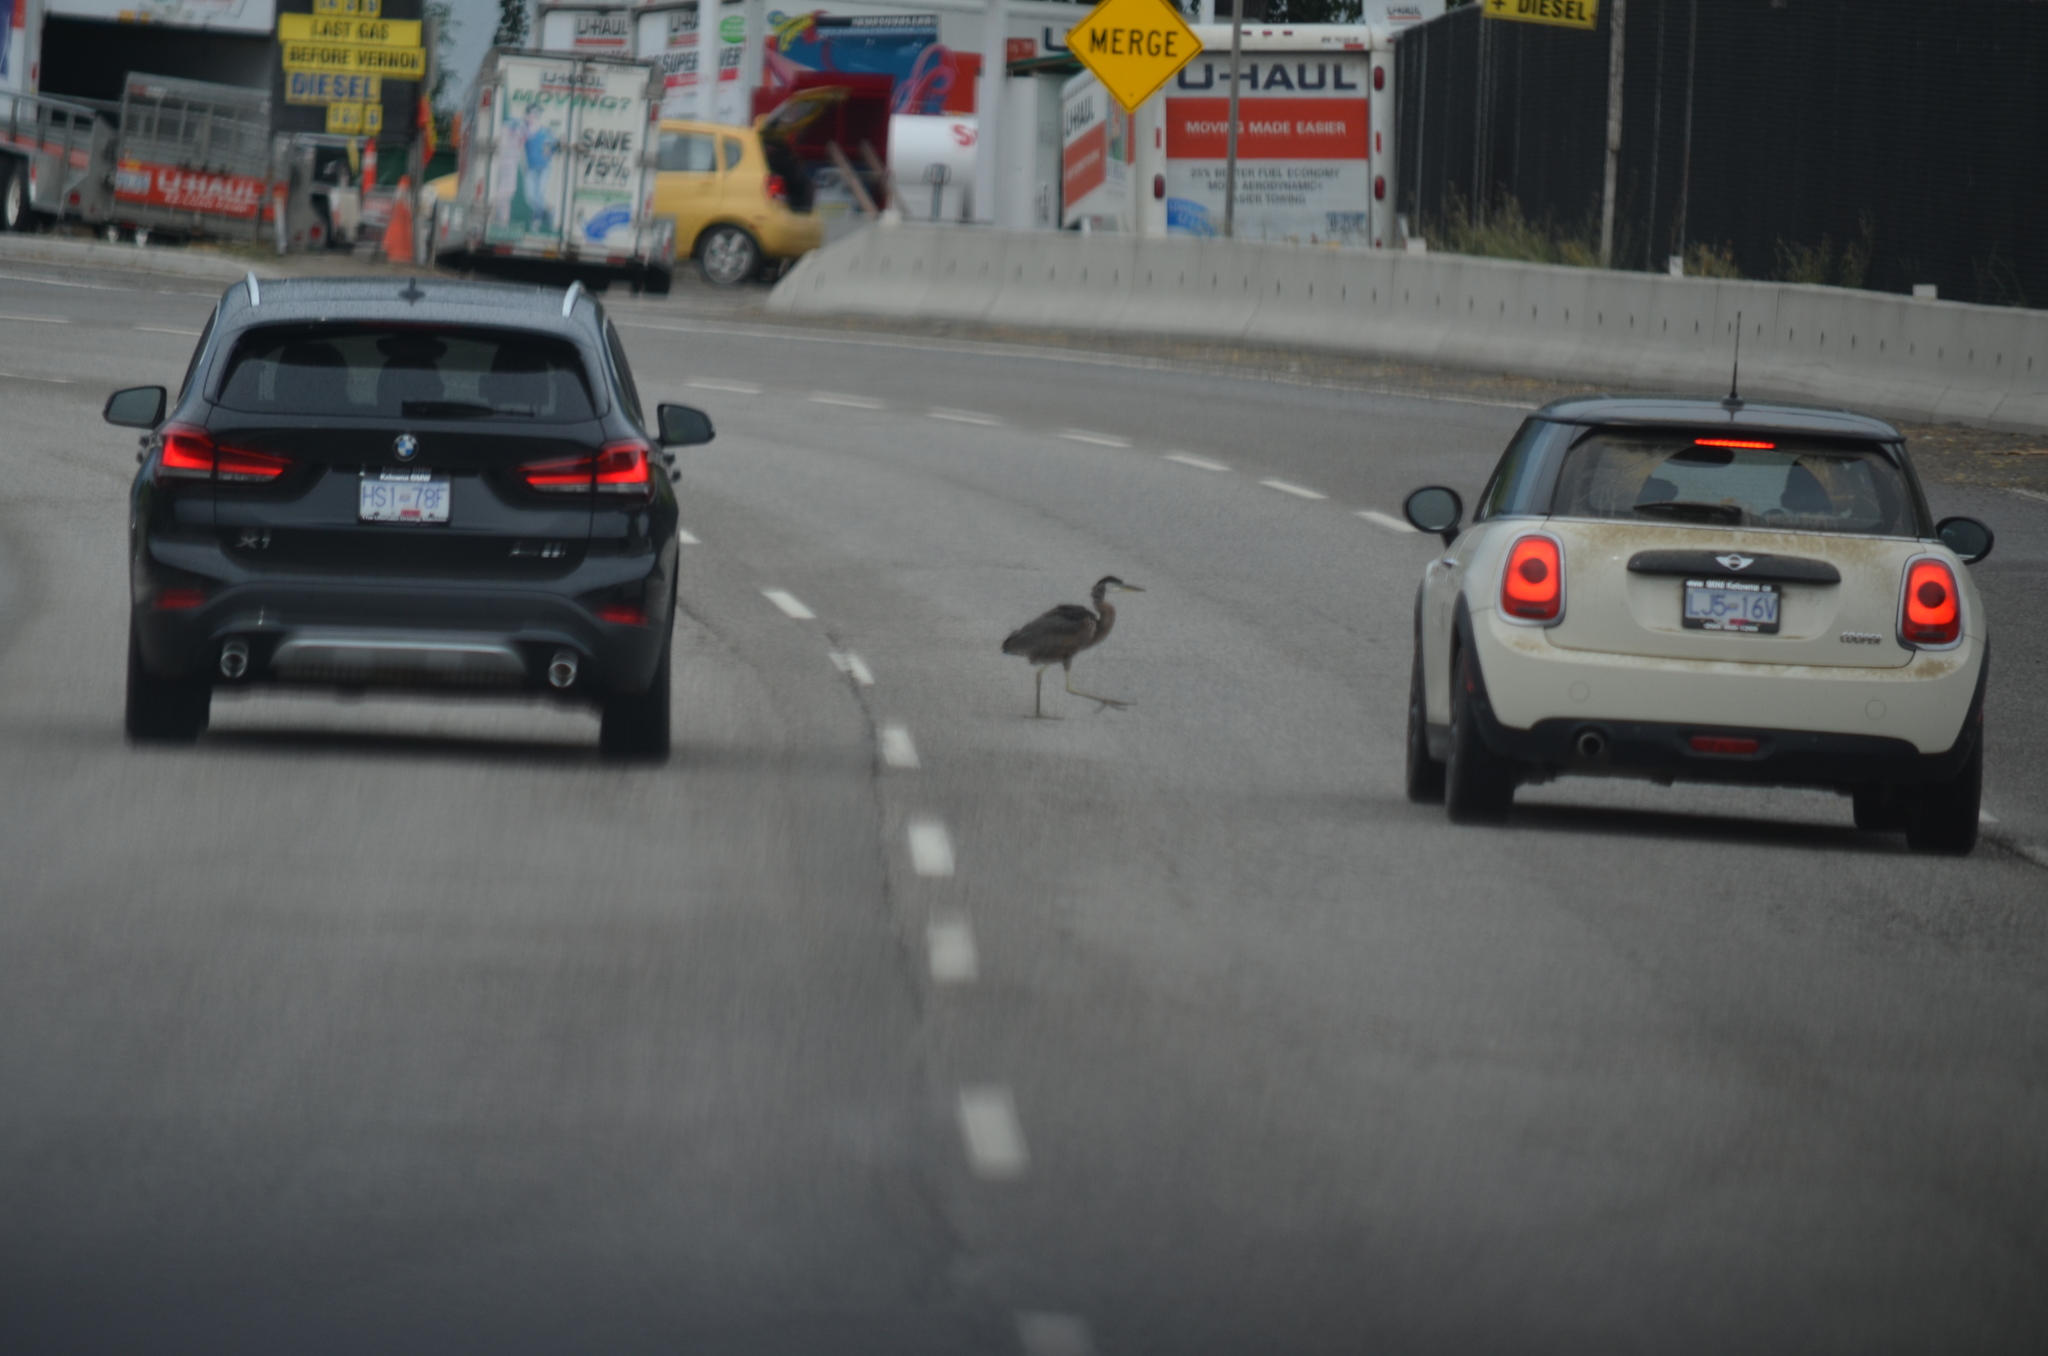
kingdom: Animalia
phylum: Chordata
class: Aves
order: Pelecaniformes
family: Ardeidae
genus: Ardea
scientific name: Ardea herodias
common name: Great blue heron
